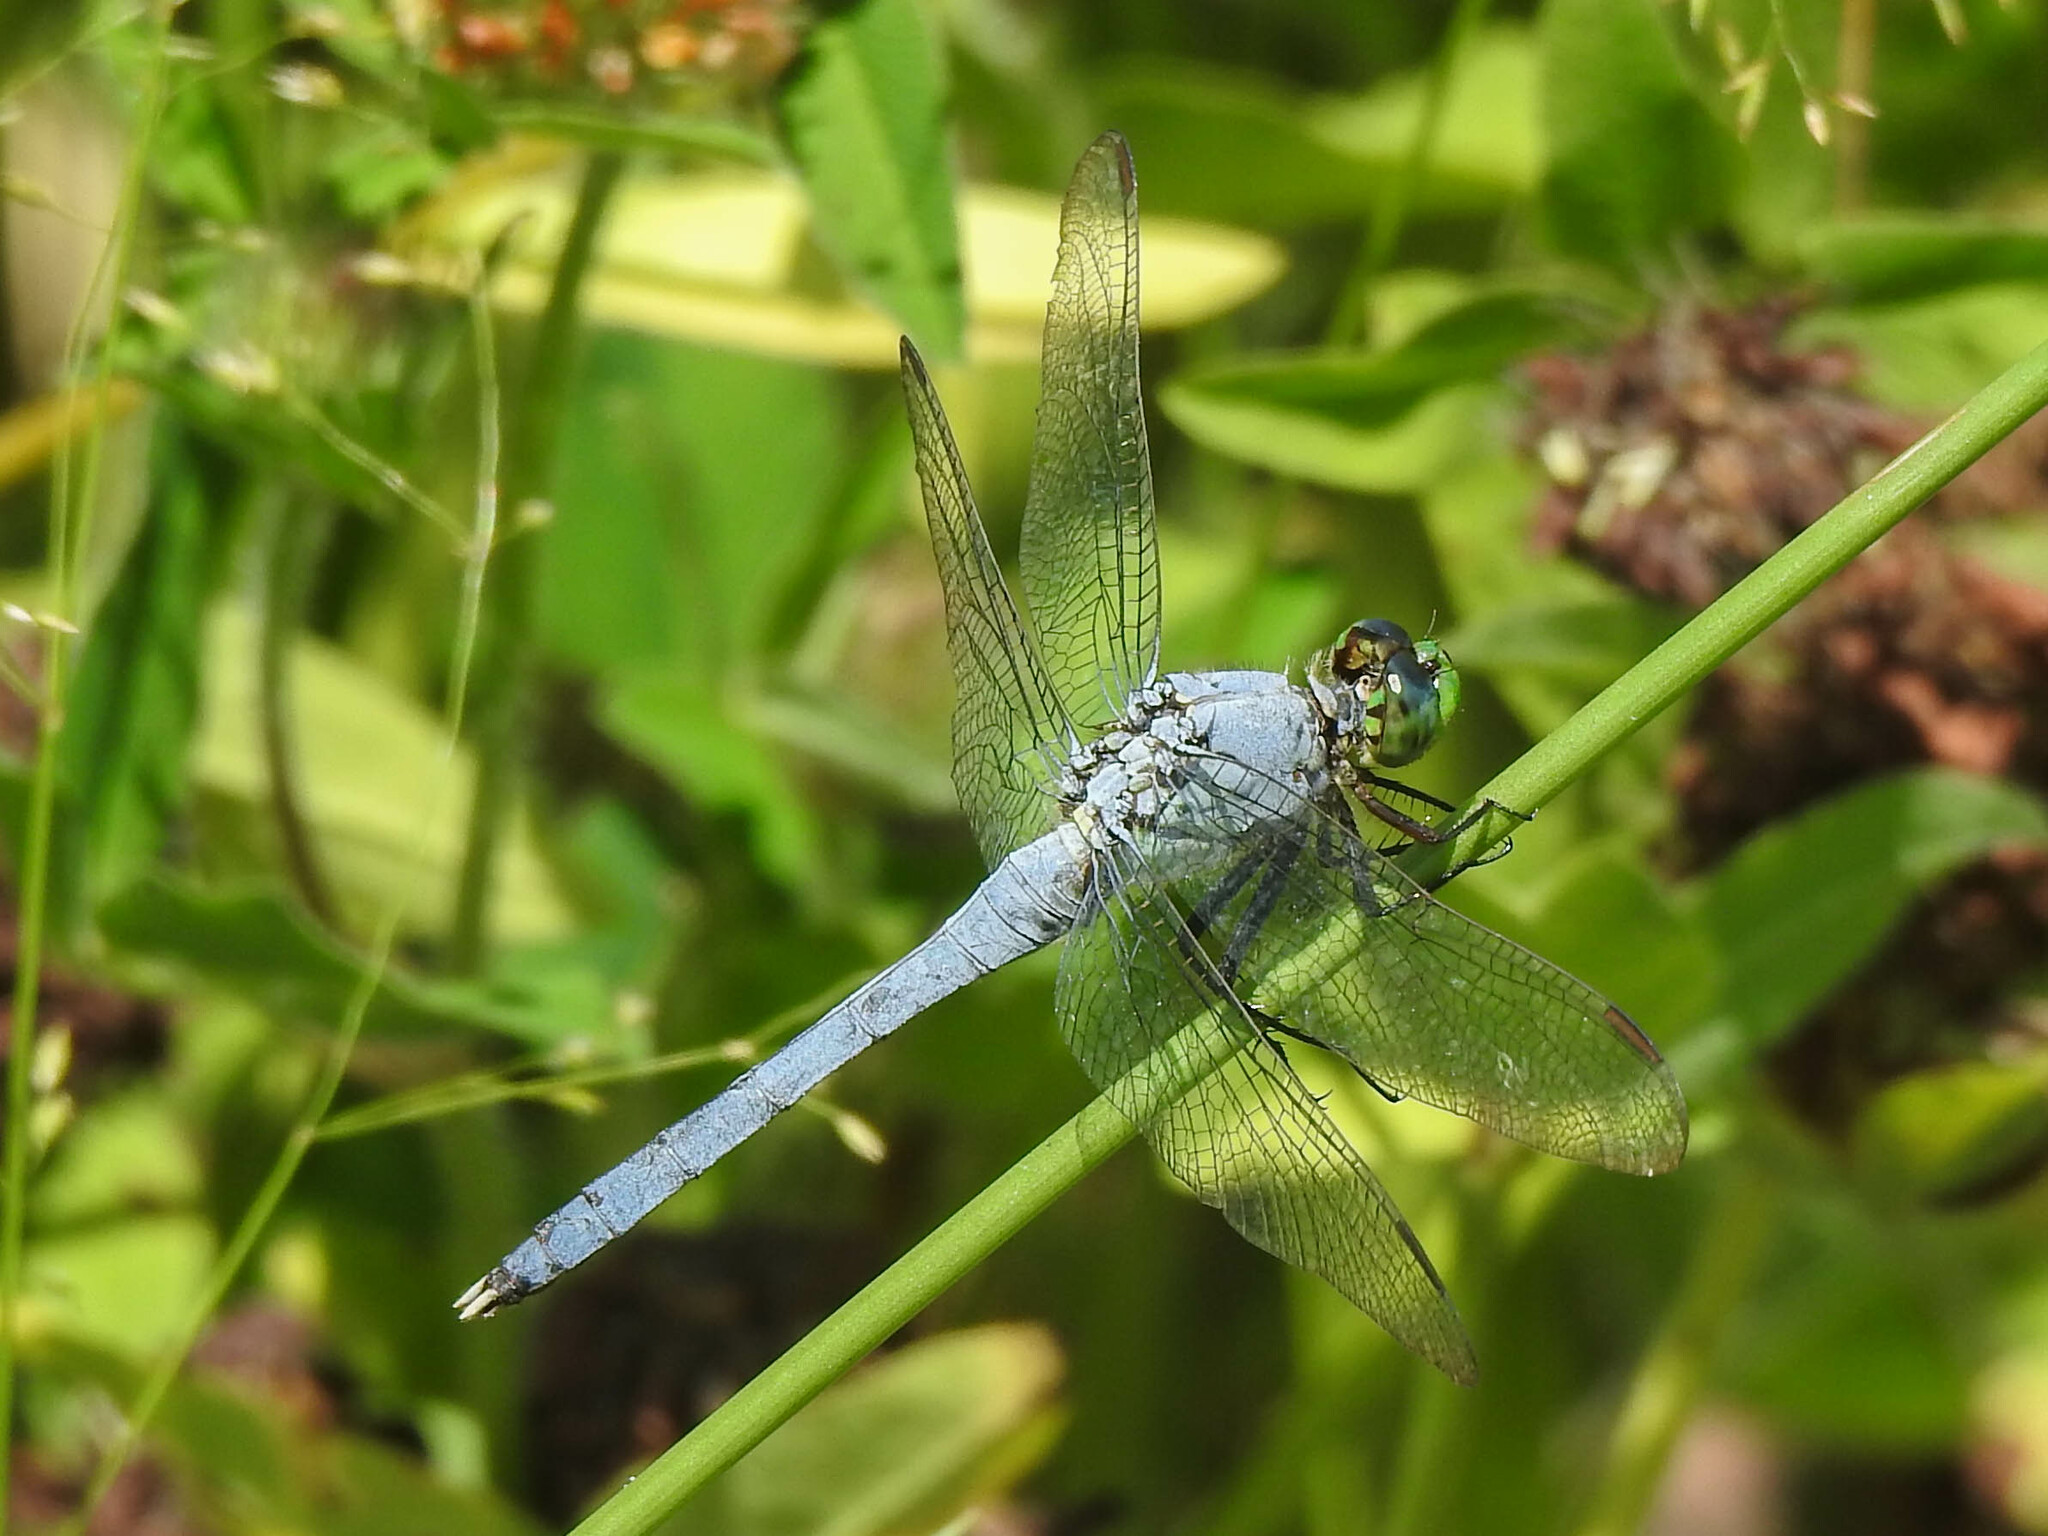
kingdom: Animalia
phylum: Arthropoda
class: Insecta
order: Odonata
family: Libellulidae
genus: Erythemis
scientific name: Erythemis simplicicollis
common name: Eastern pondhawk
